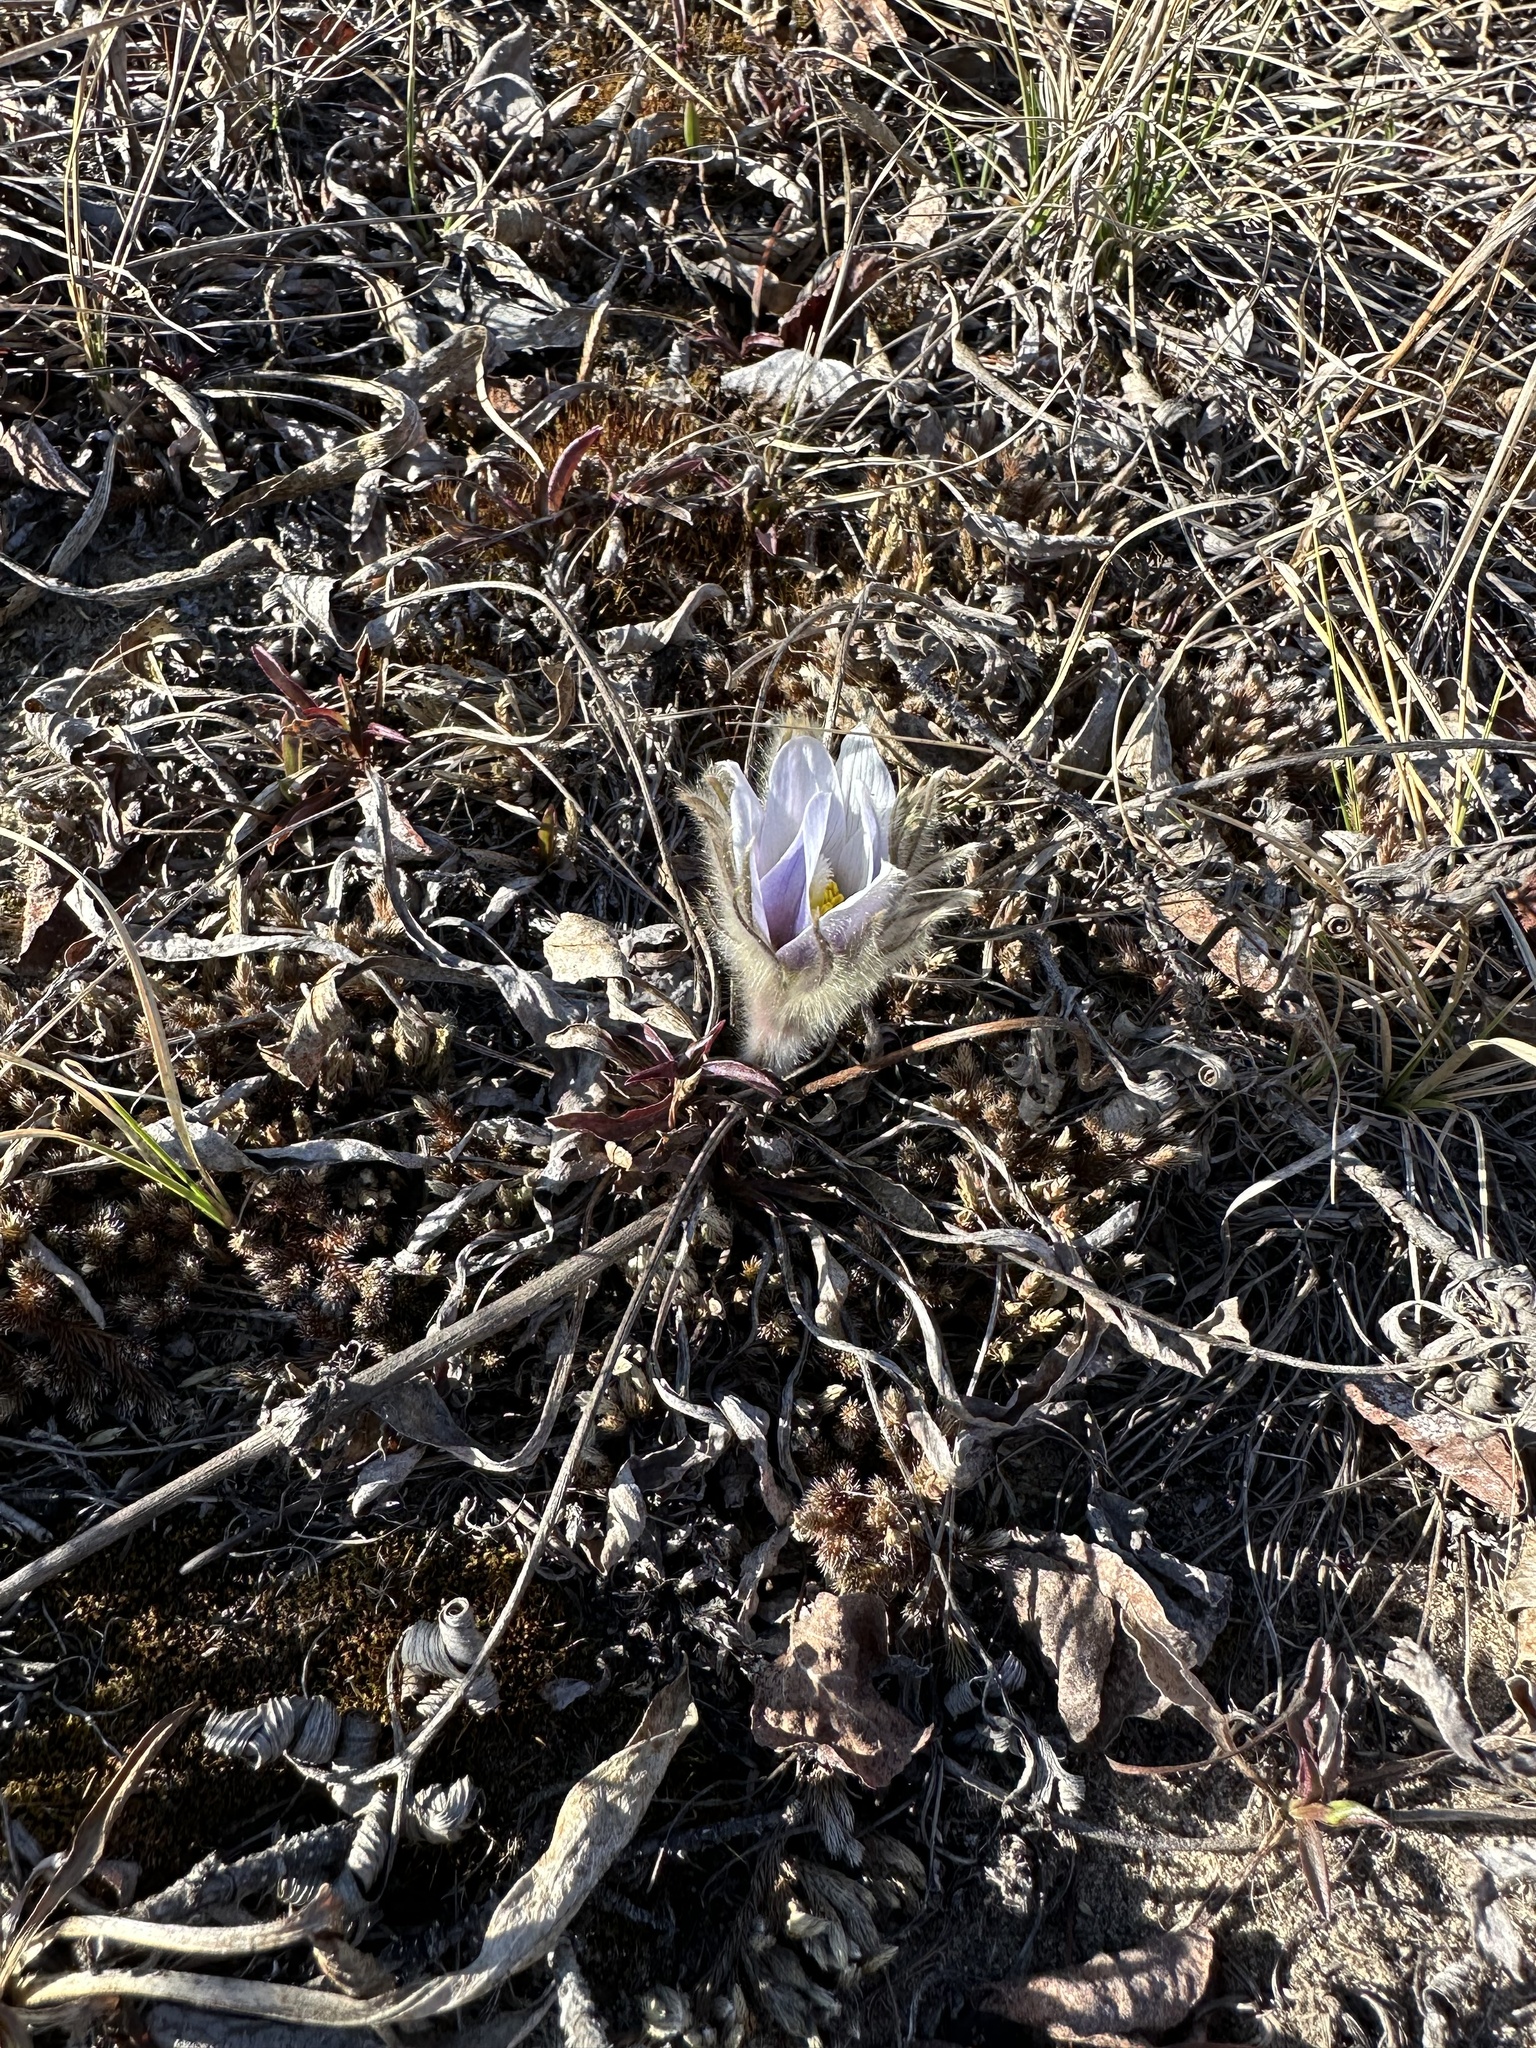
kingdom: Plantae
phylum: Tracheophyta
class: Magnoliopsida
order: Ranunculales
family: Ranunculaceae
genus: Pulsatilla
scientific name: Pulsatilla nuttalliana
